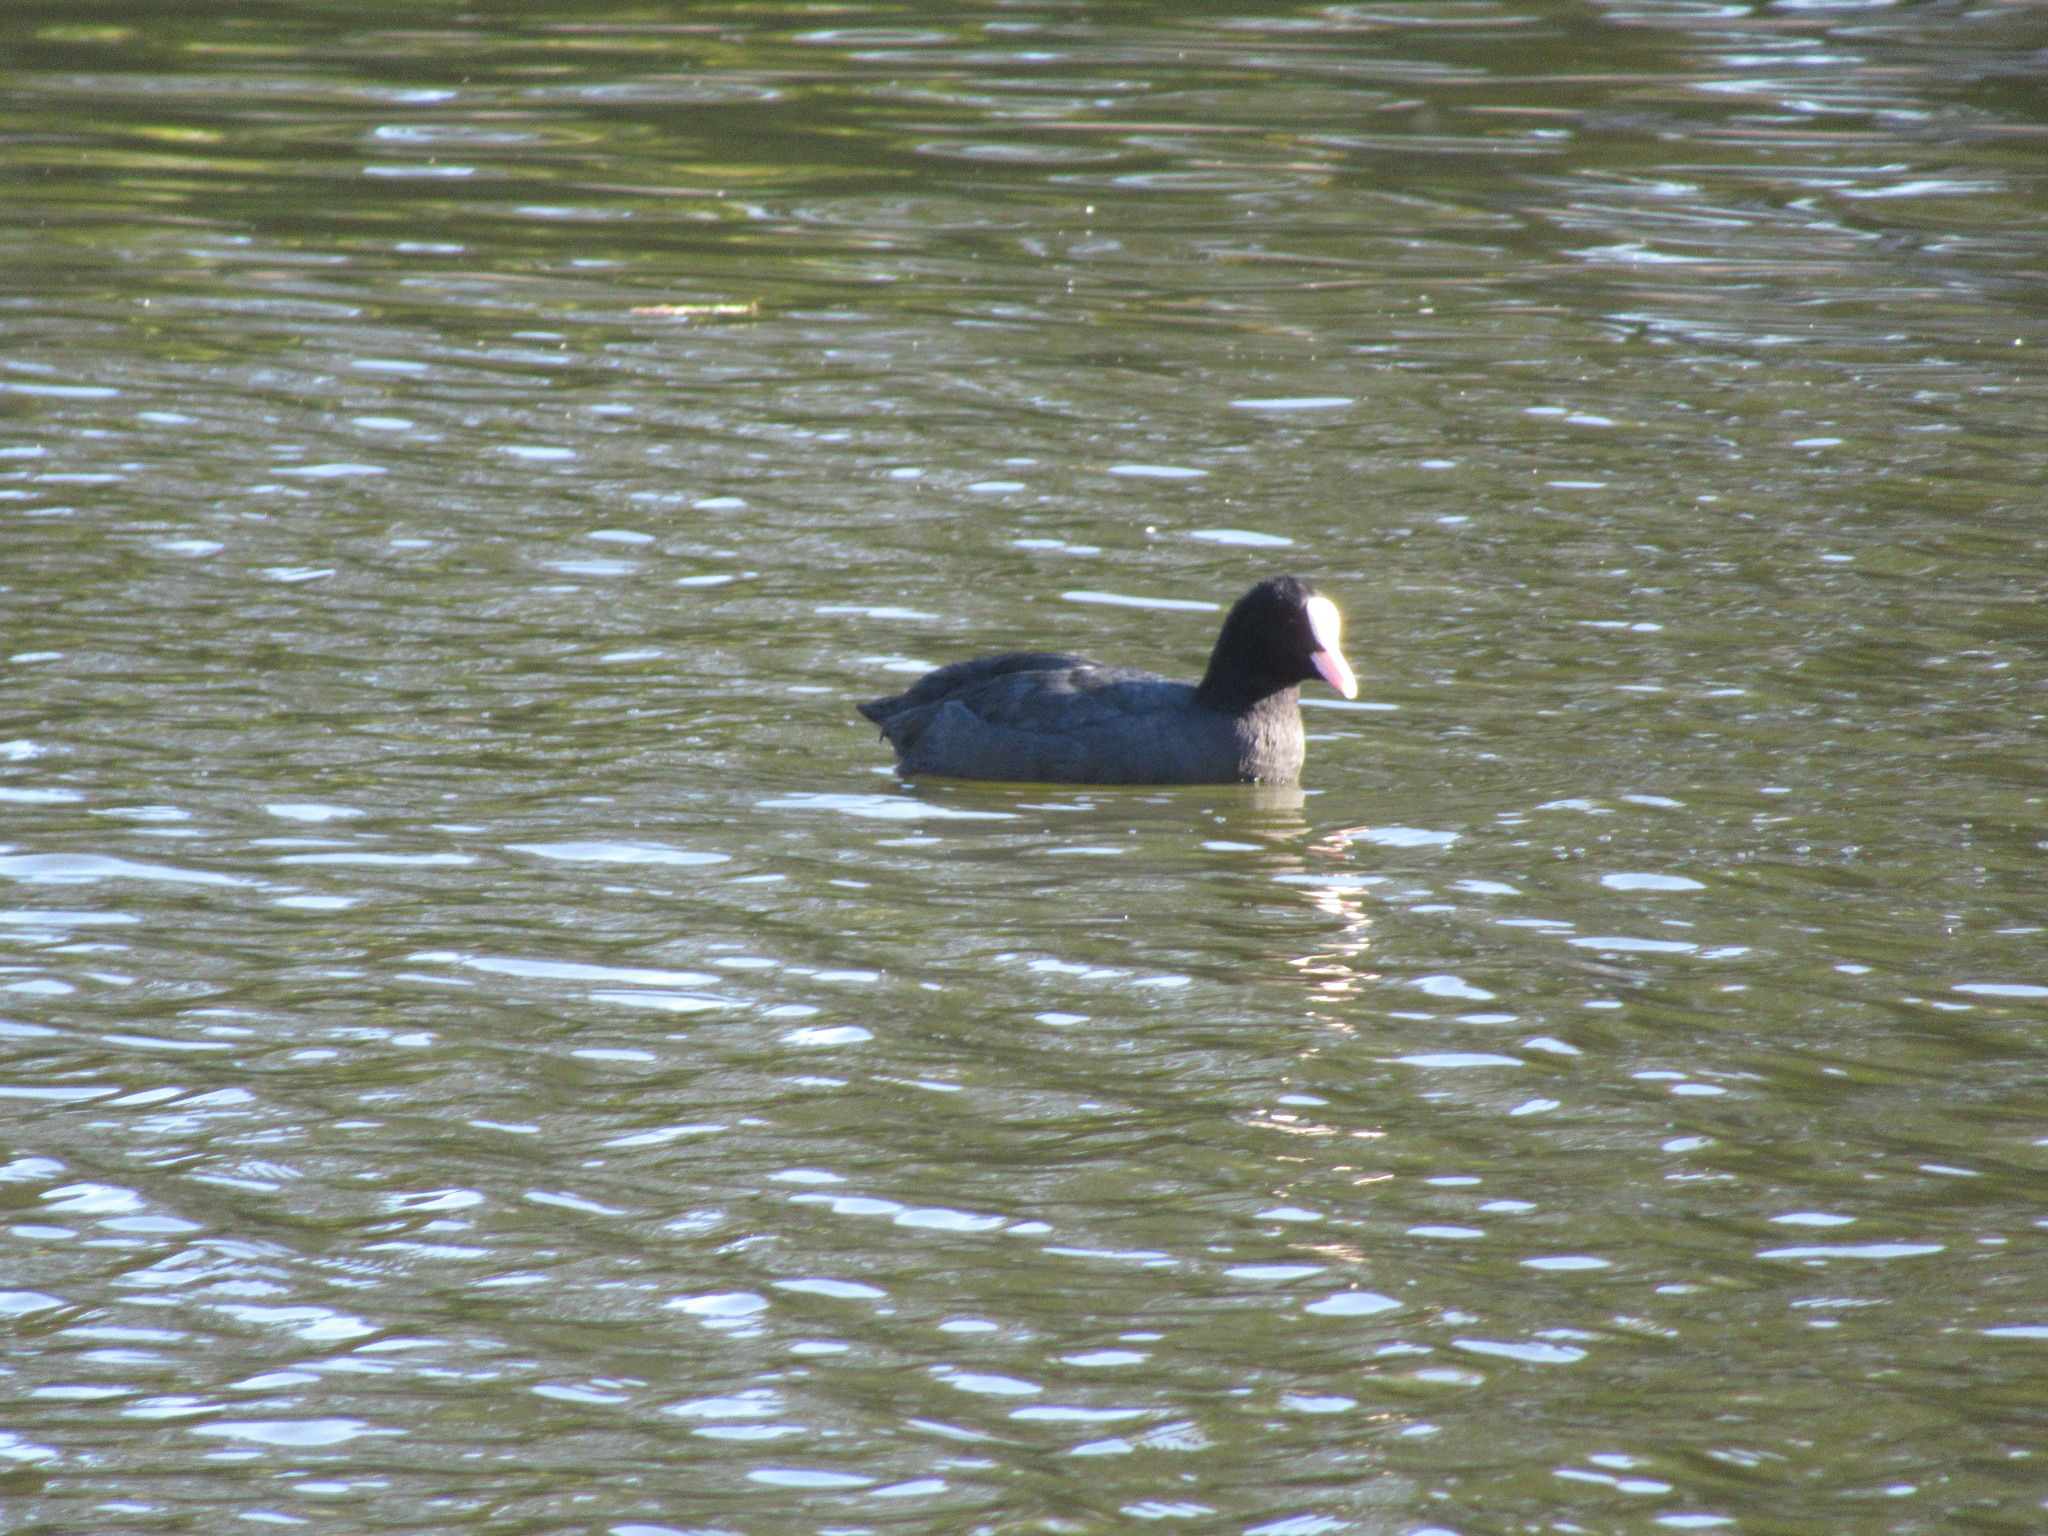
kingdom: Animalia
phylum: Chordata
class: Aves
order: Gruiformes
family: Rallidae
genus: Fulica
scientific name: Fulica atra
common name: Eurasian coot
